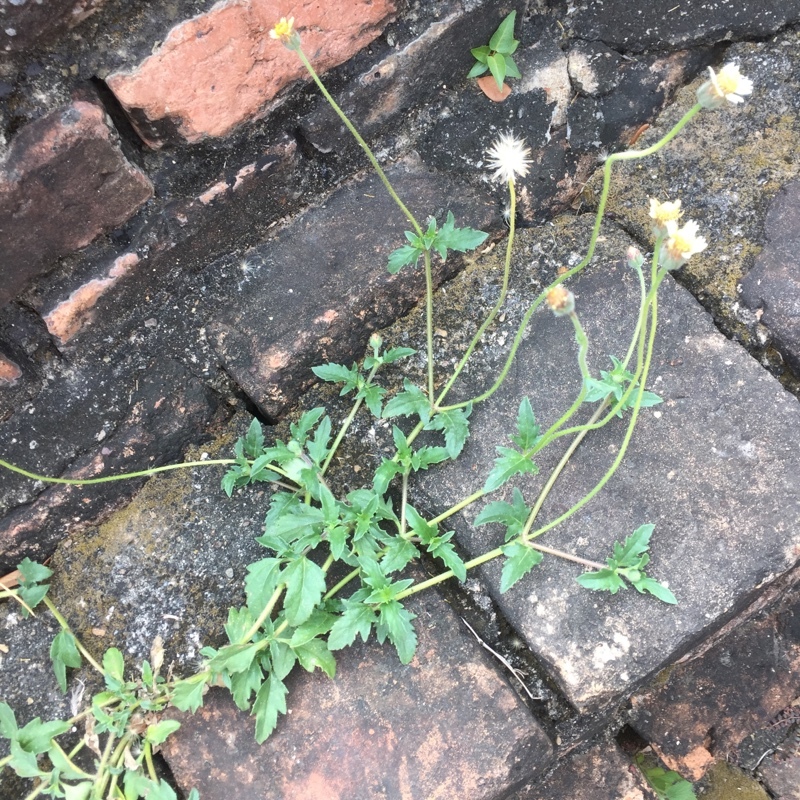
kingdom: Plantae
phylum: Tracheophyta
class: Magnoliopsida
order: Asterales
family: Asteraceae
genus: Tridax
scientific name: Tridax procumbens
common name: Coatbuttons
